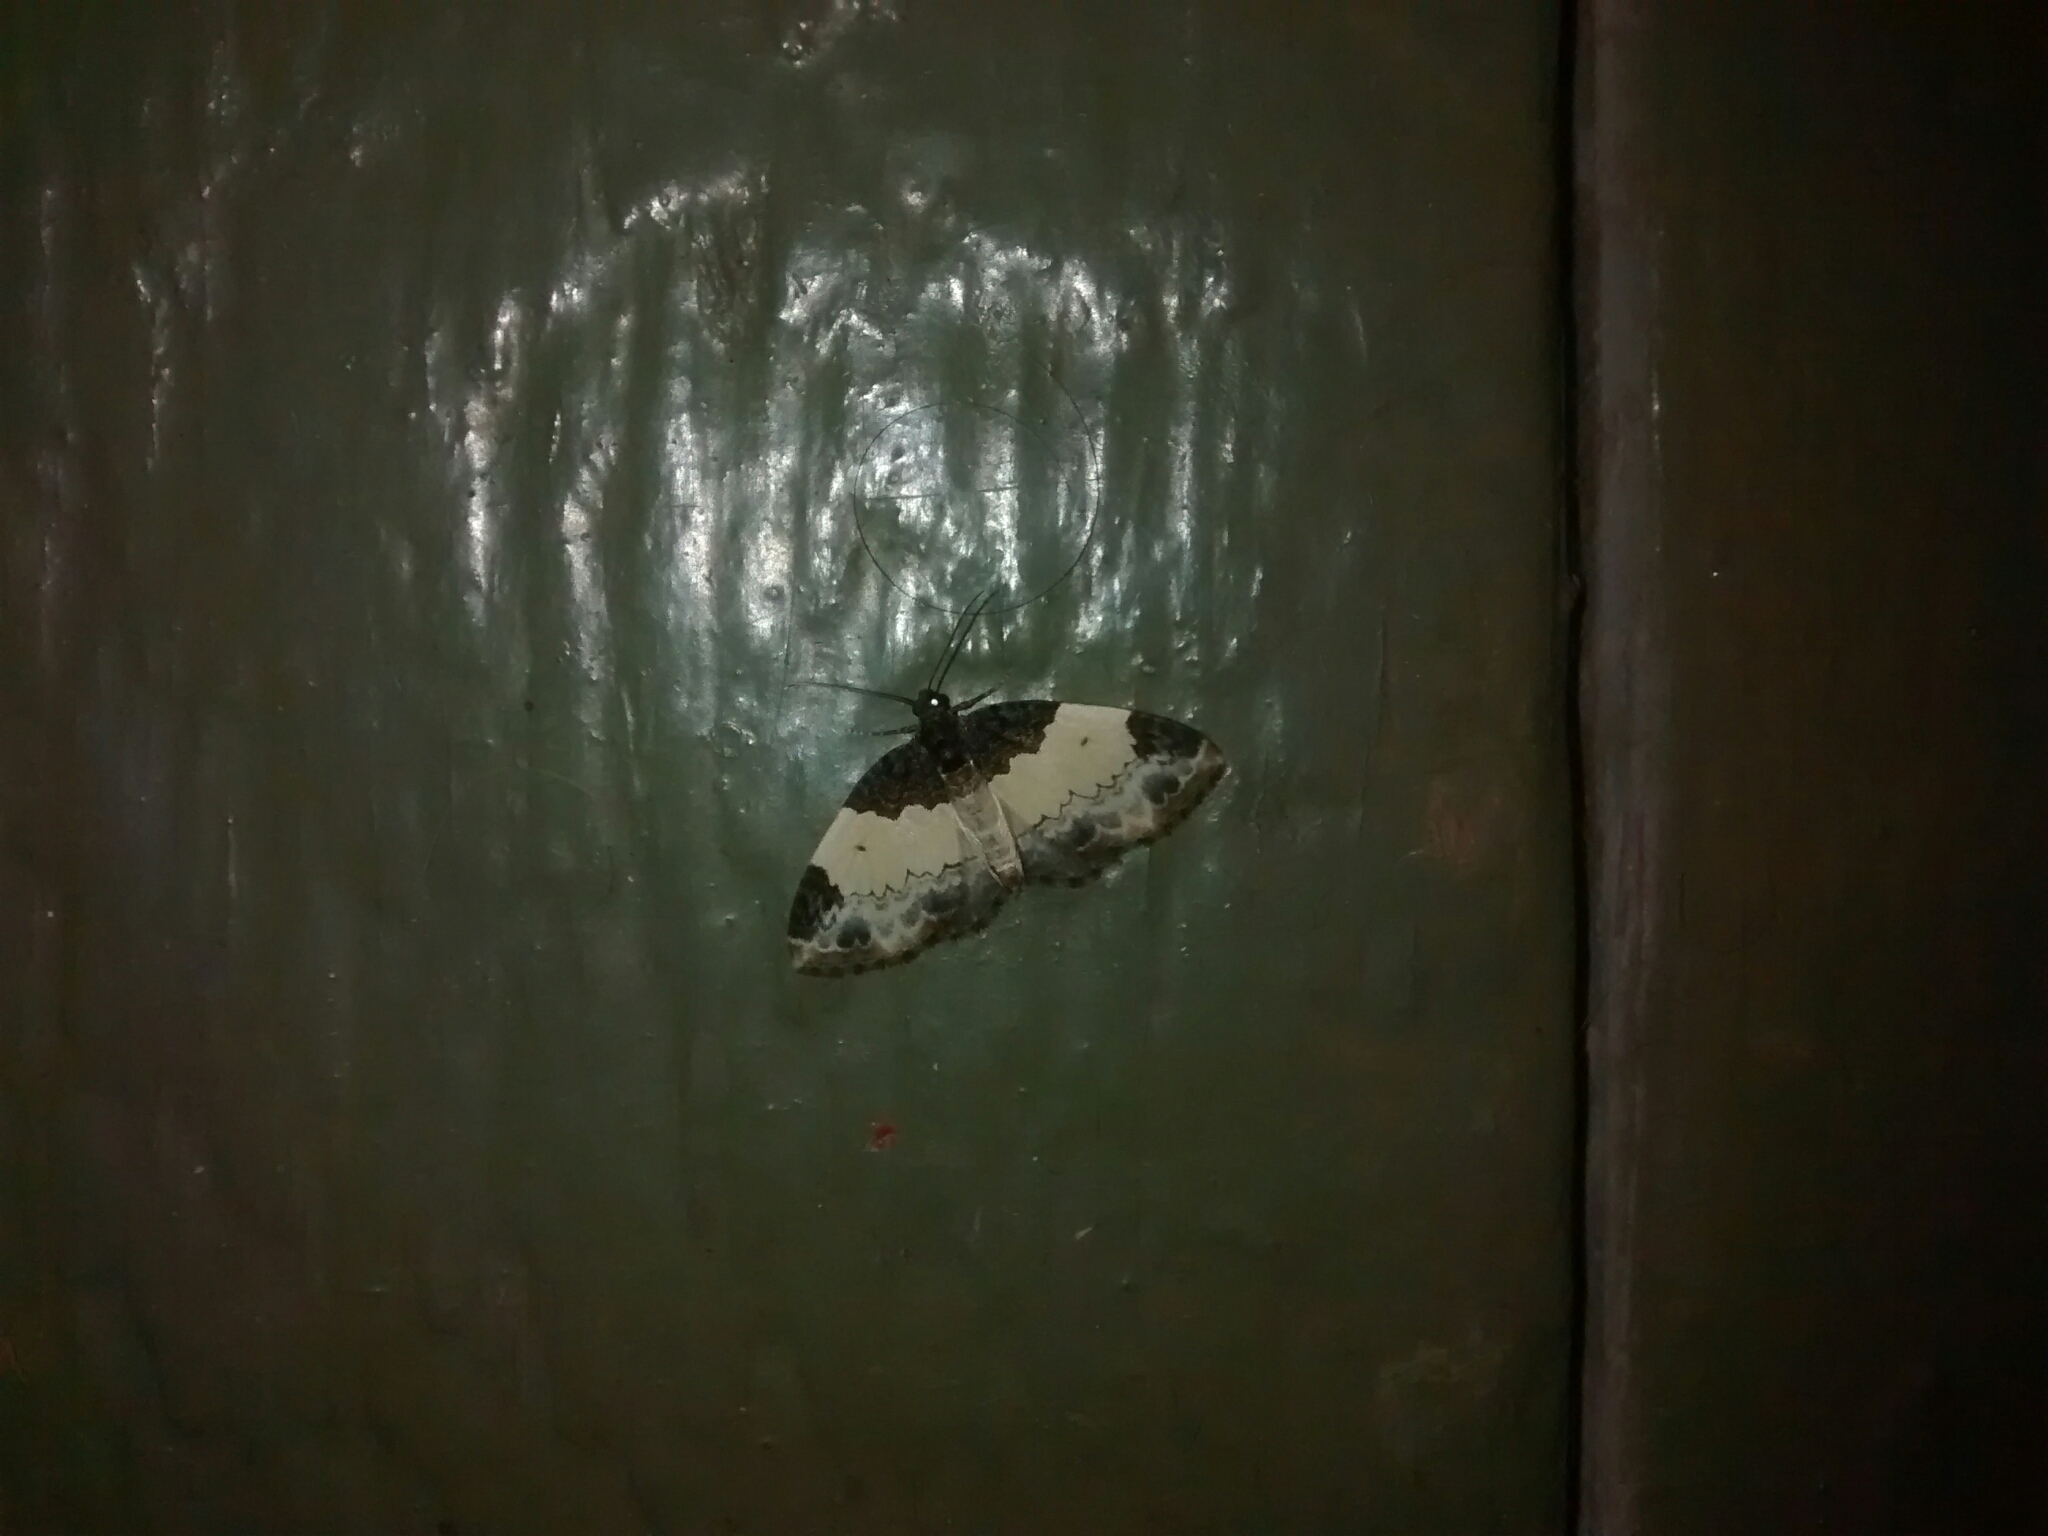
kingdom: Animalia
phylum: Arthropoda
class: Insecta
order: Lepidoptera
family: Geometridae
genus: Mesoleuca
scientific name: Mesoleuca ruficillata
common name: White-ribboned carpet moth
